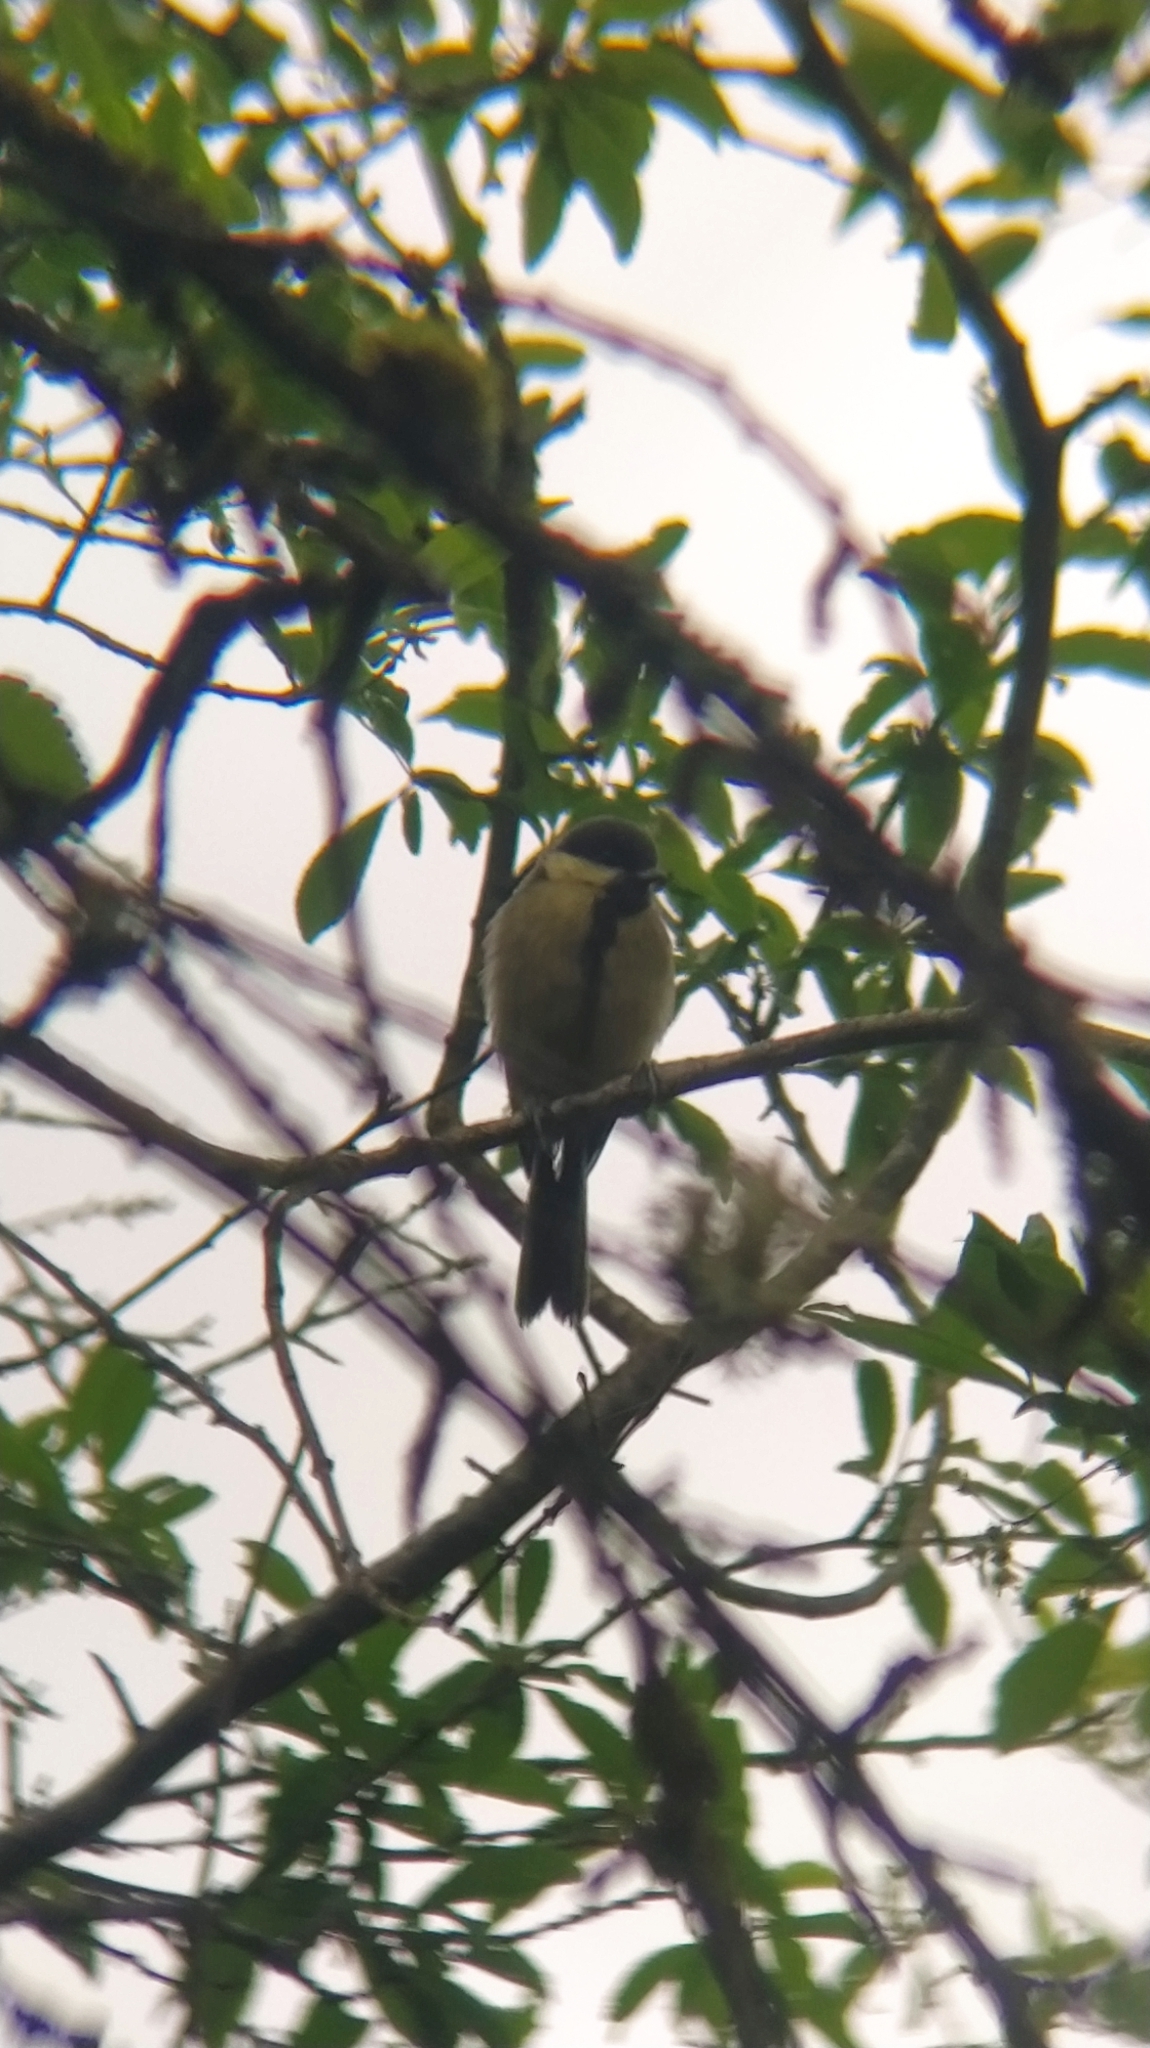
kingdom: Animalia
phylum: Chordata
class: Aves
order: Passeriformes
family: Paridae
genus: Parus
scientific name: Parus major
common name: Great tit
